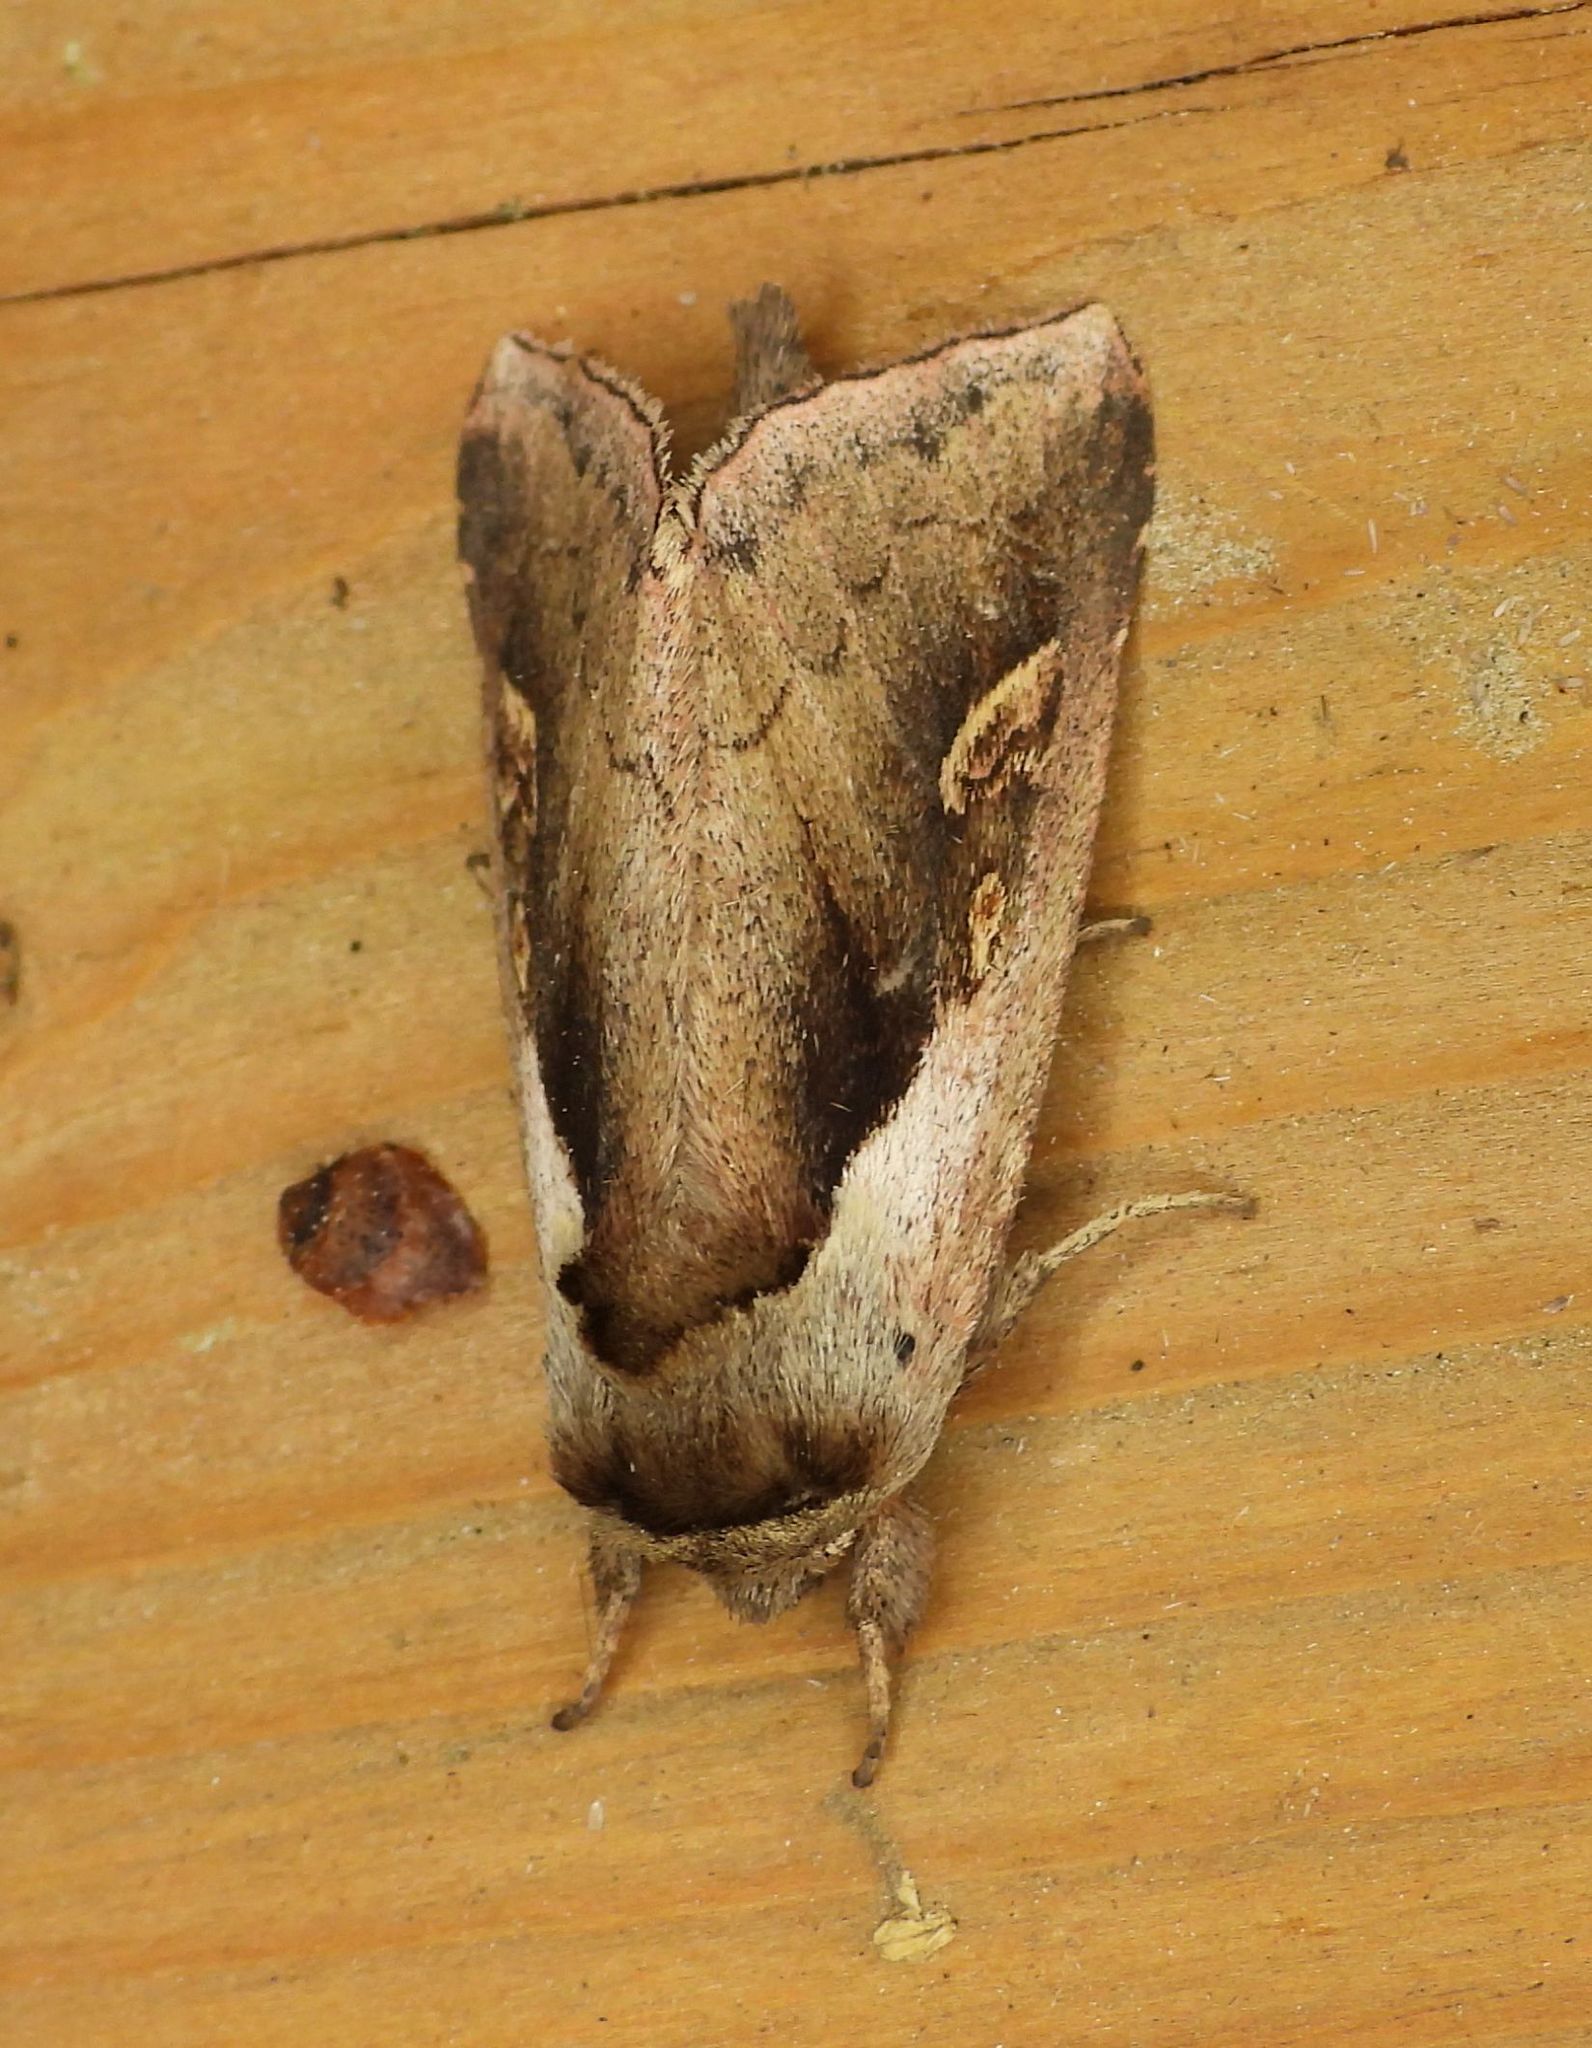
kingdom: Animalia
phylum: Arthropoda
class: Insecta
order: Lepidoptera
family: Noctuidae
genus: Bellura
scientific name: Bellura obliqua
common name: Cattail borer moth
